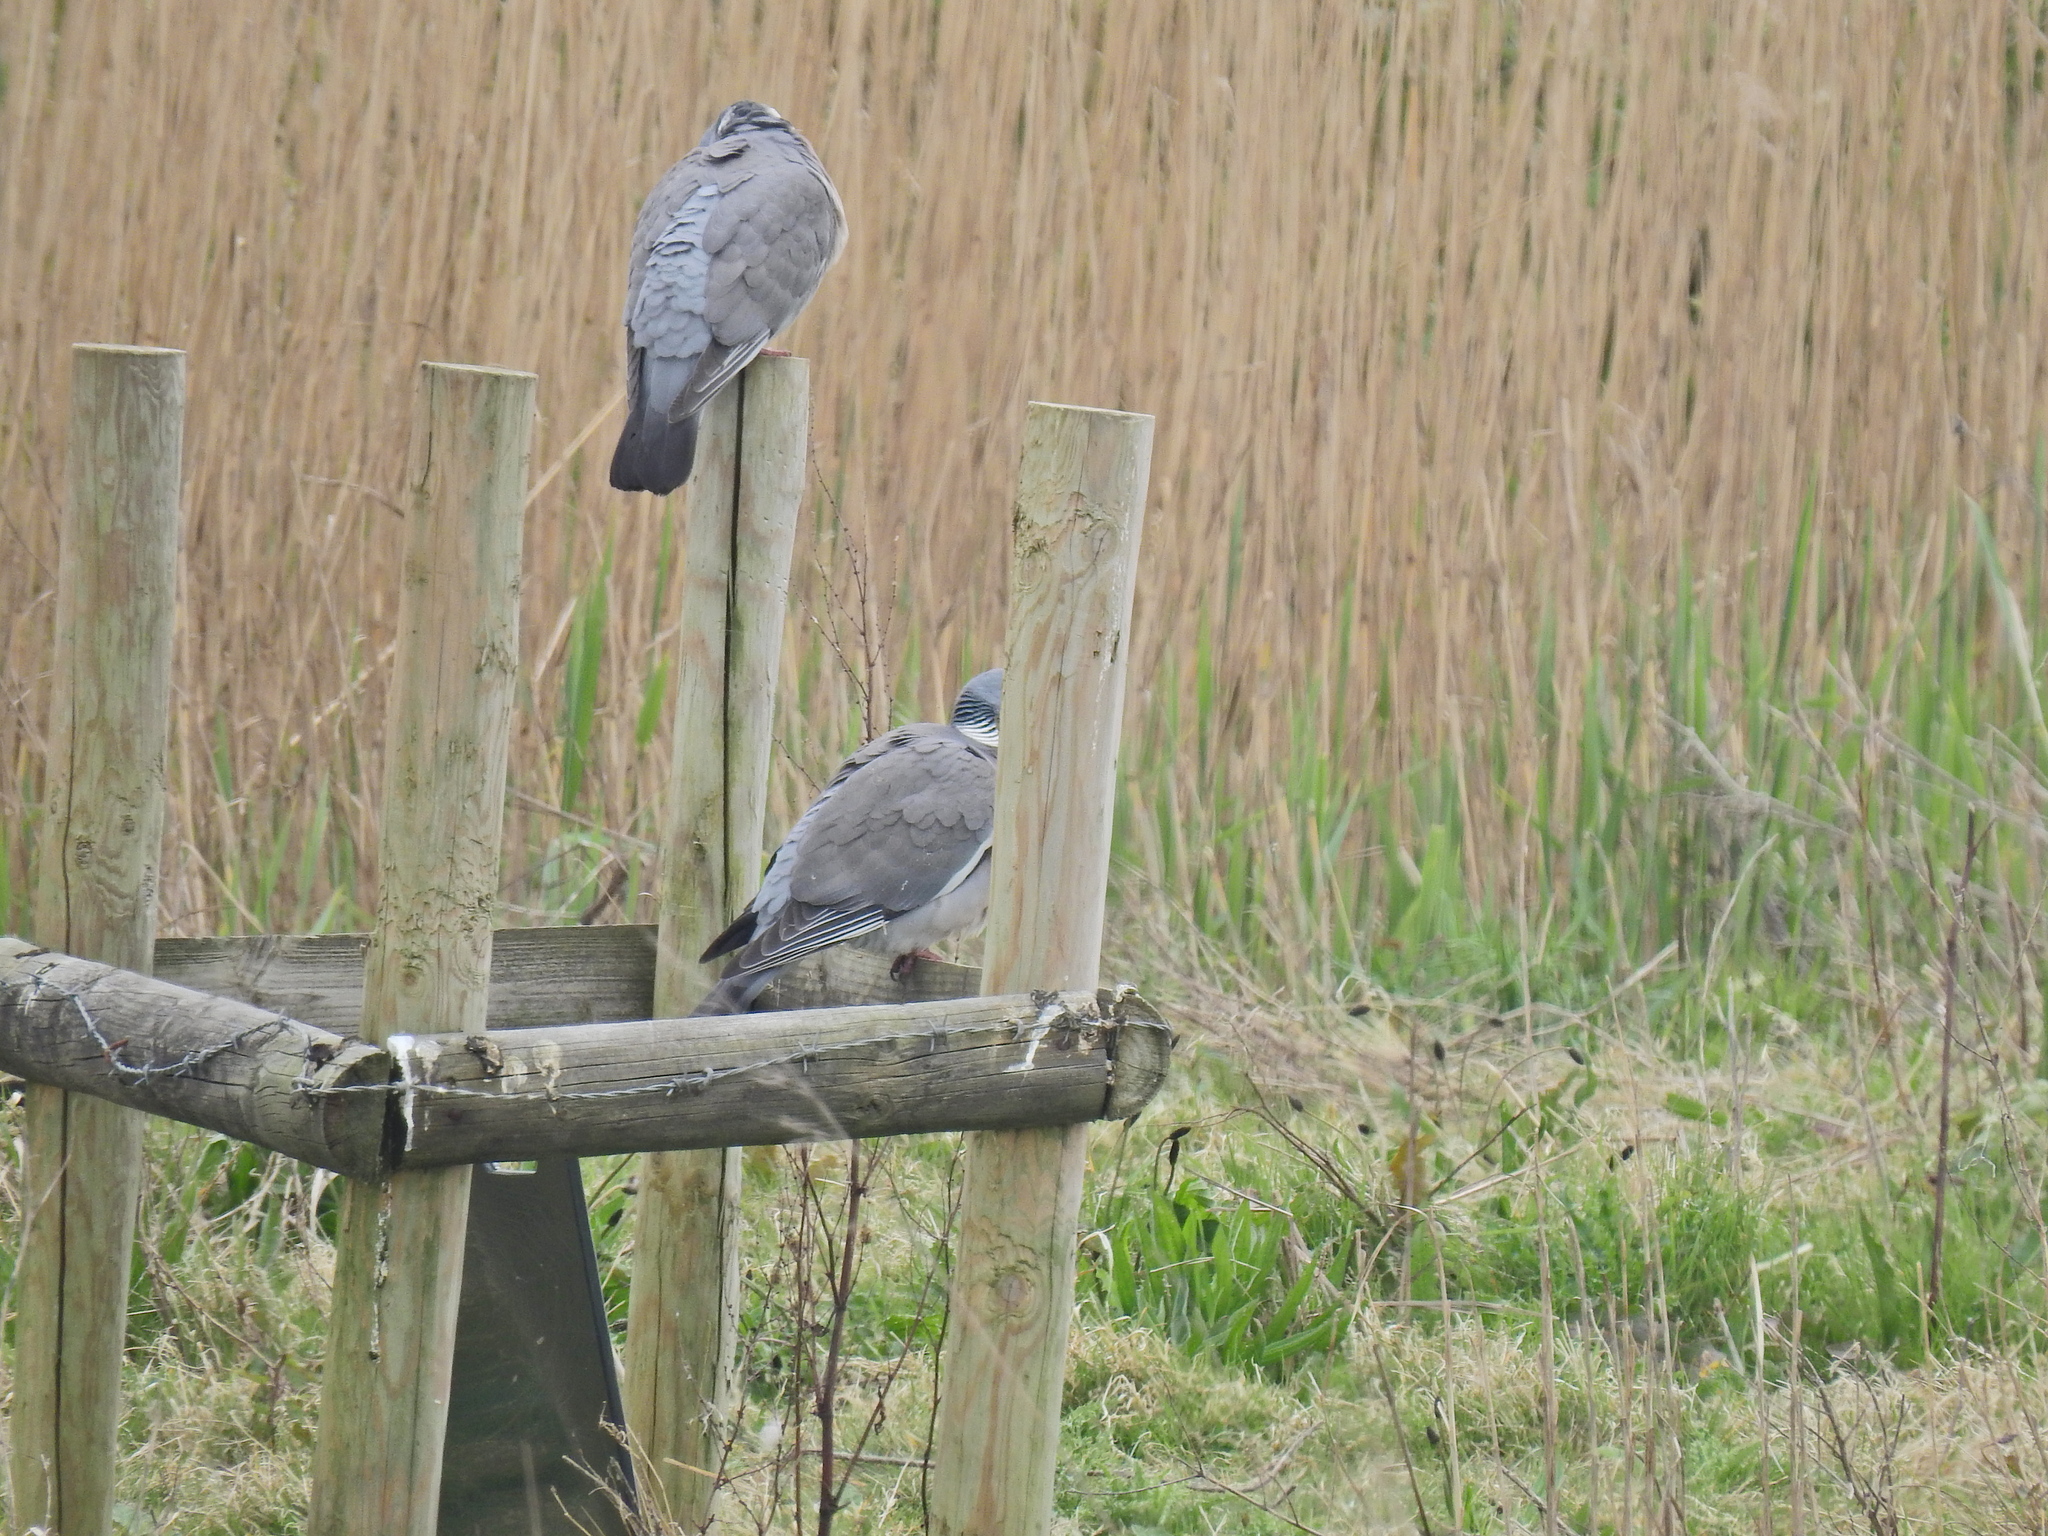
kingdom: Animalia
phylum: Chordata
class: Aves
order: Columbiformes
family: Columbidae
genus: Columba
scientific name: Columba palumbus
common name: Common wood pigeon
